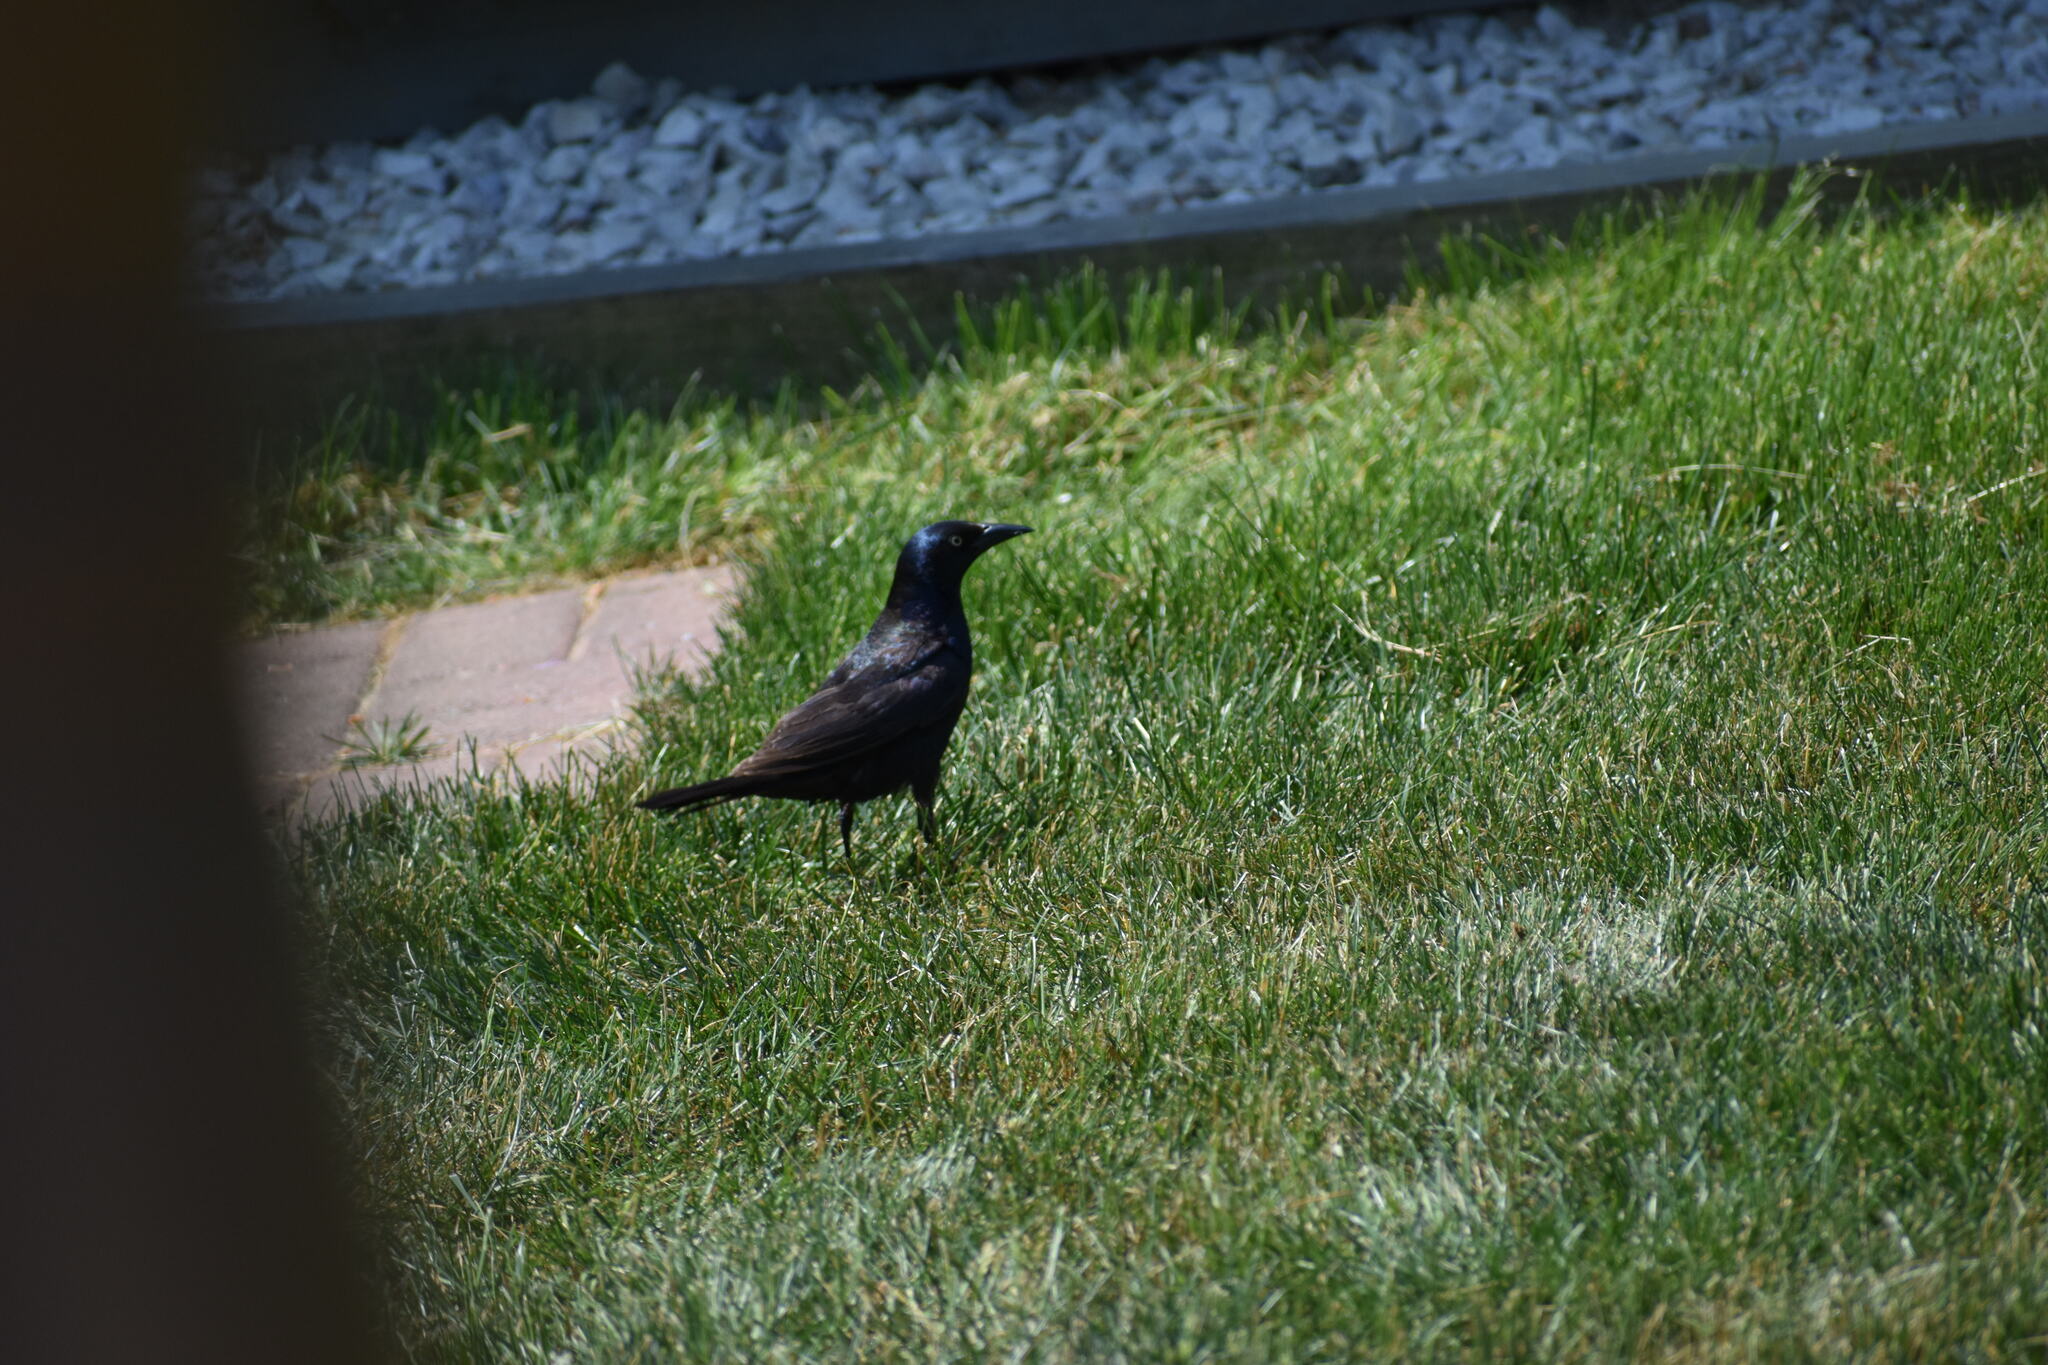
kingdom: Animalia
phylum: Chordata
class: Aves
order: Passeriformes
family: Icteridae
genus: Quiscalus
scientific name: Quiscalus quiscula
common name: Common grackle
